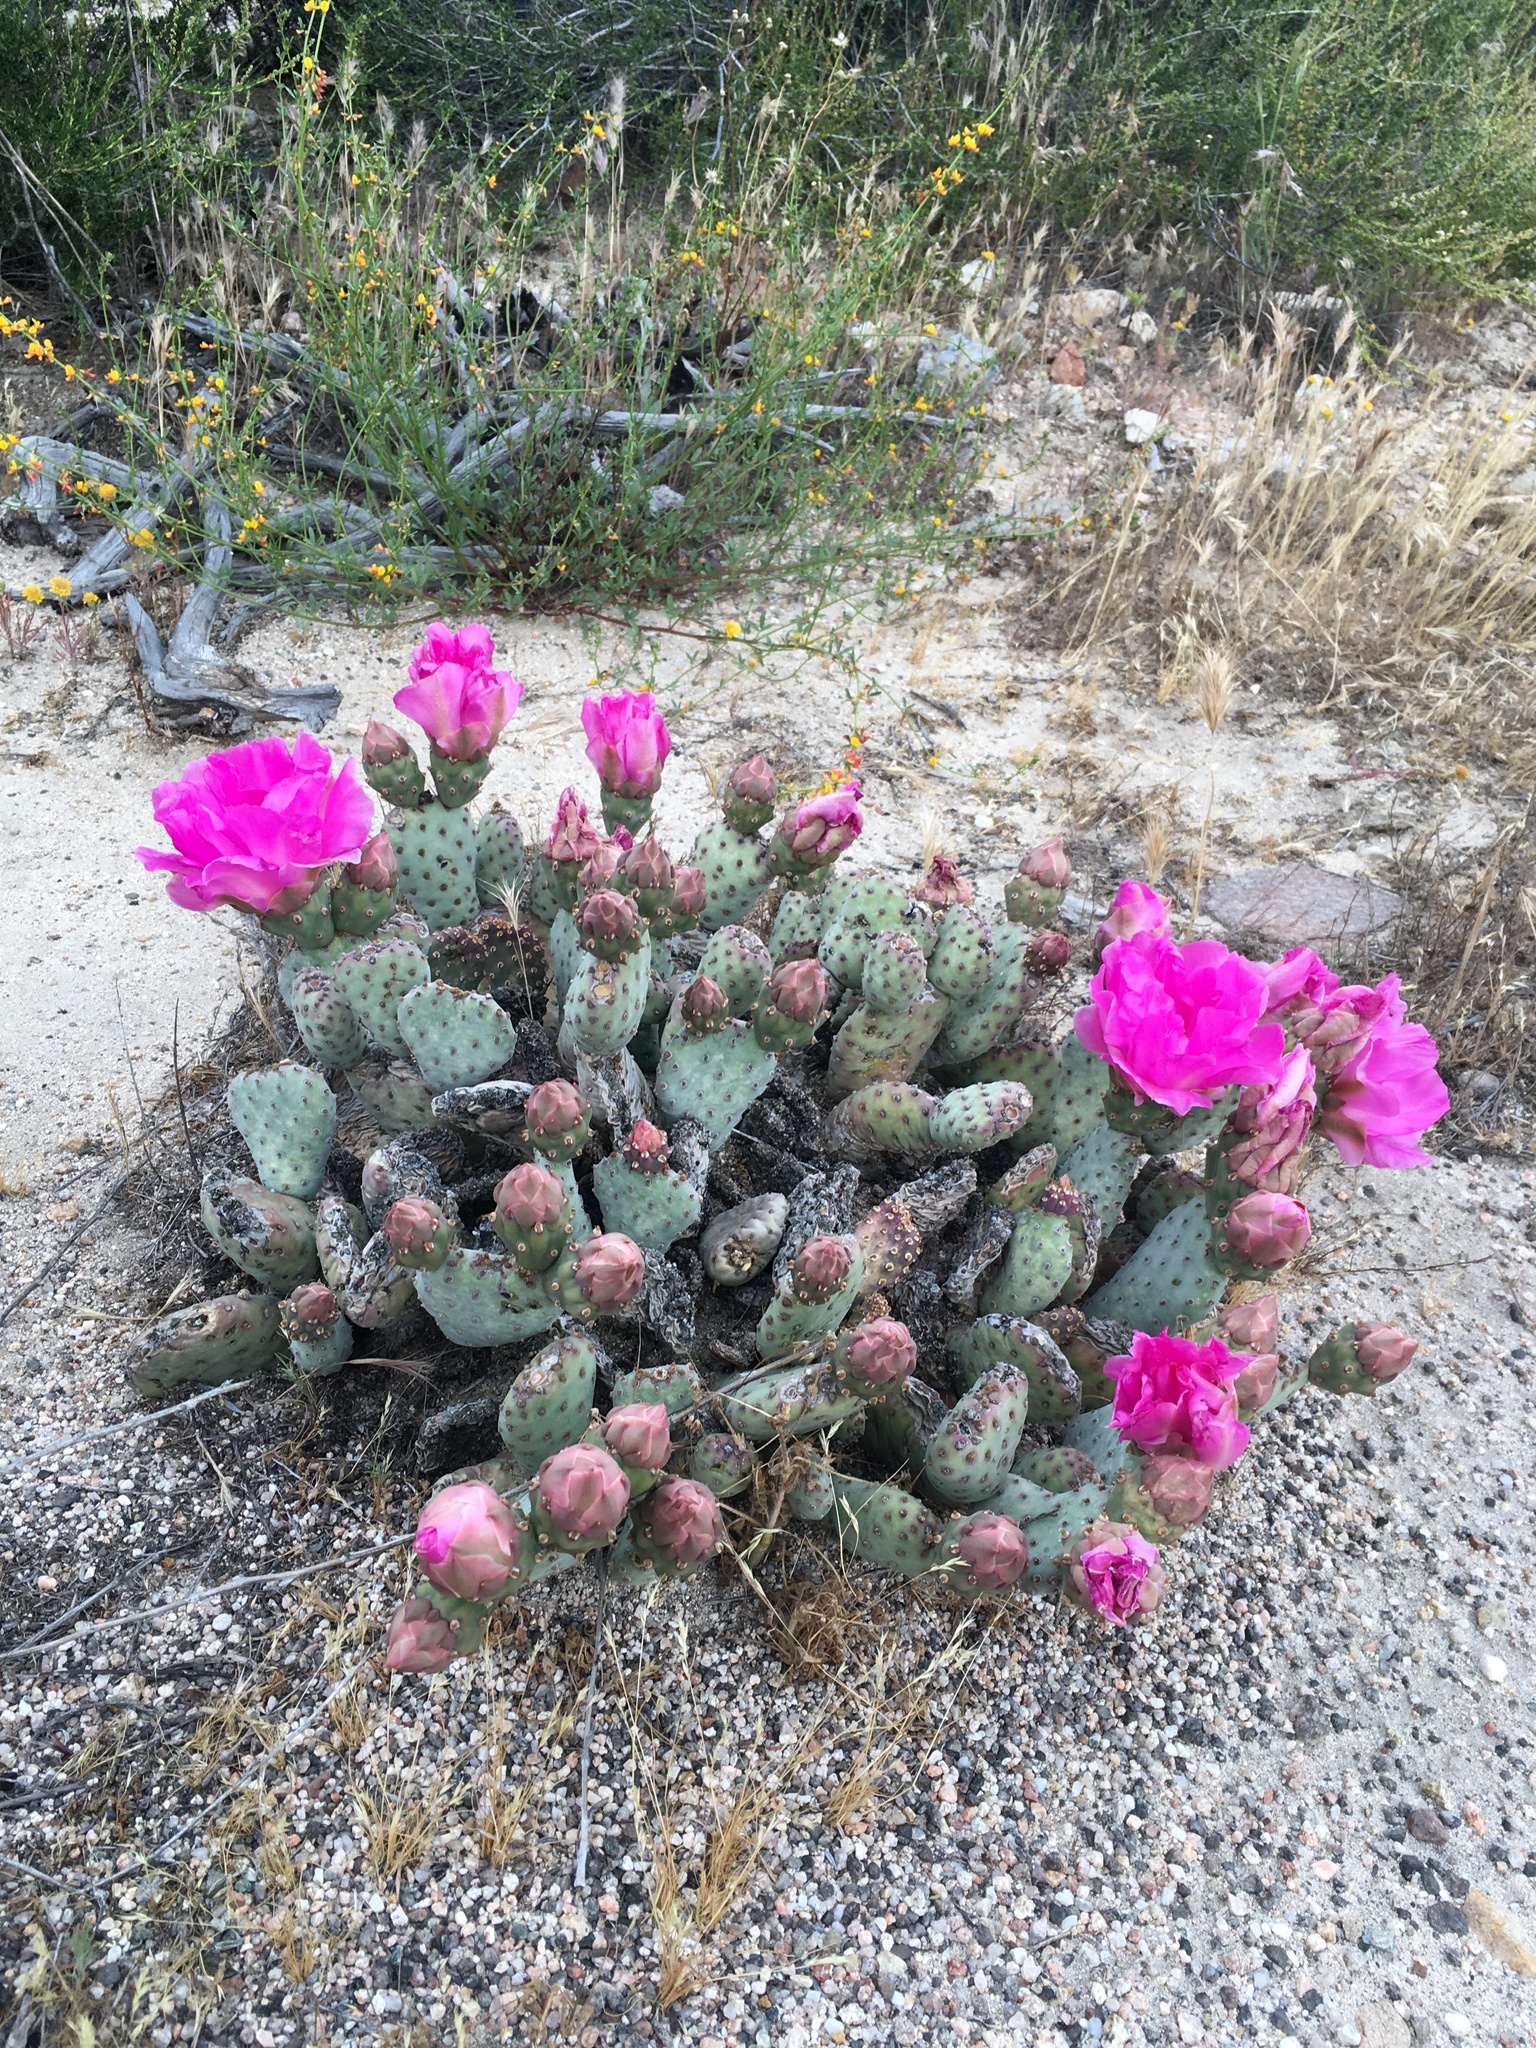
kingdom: Plantae
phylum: Tracheophyta
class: Magnoliopsida
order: Caryophyllales
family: Cactaceae
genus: Opuntia
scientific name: Opuntia basilaris
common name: Beavertail prickly-pear
